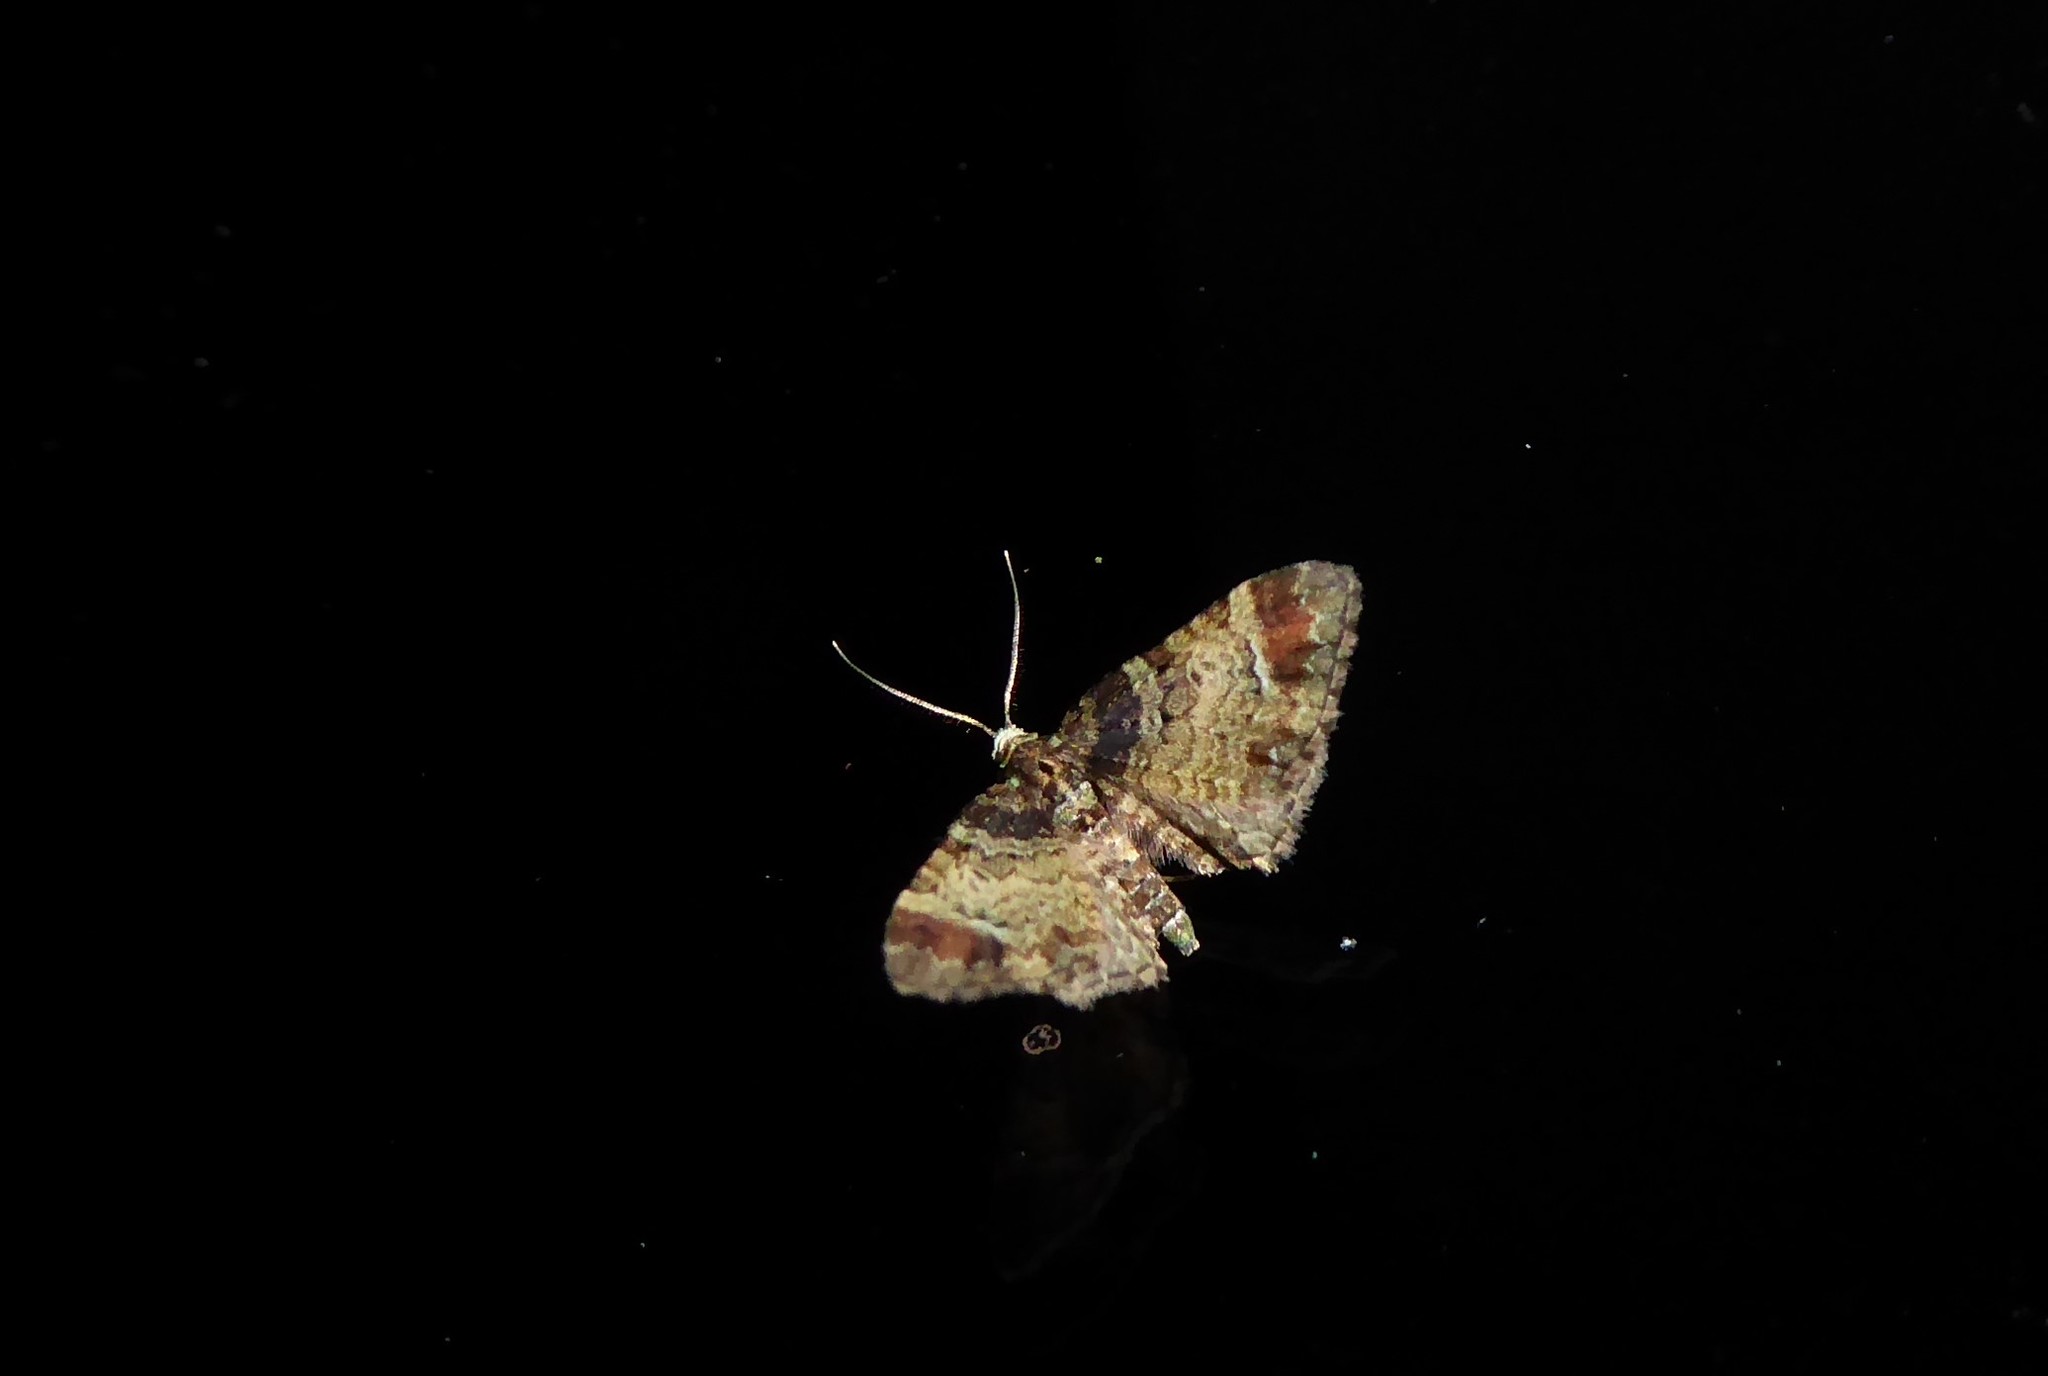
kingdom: Animalia
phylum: Arthropoda
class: Insecta
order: Lepidoptera
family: Geometridae
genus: Pasiphila
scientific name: Pasiphila sandycias
